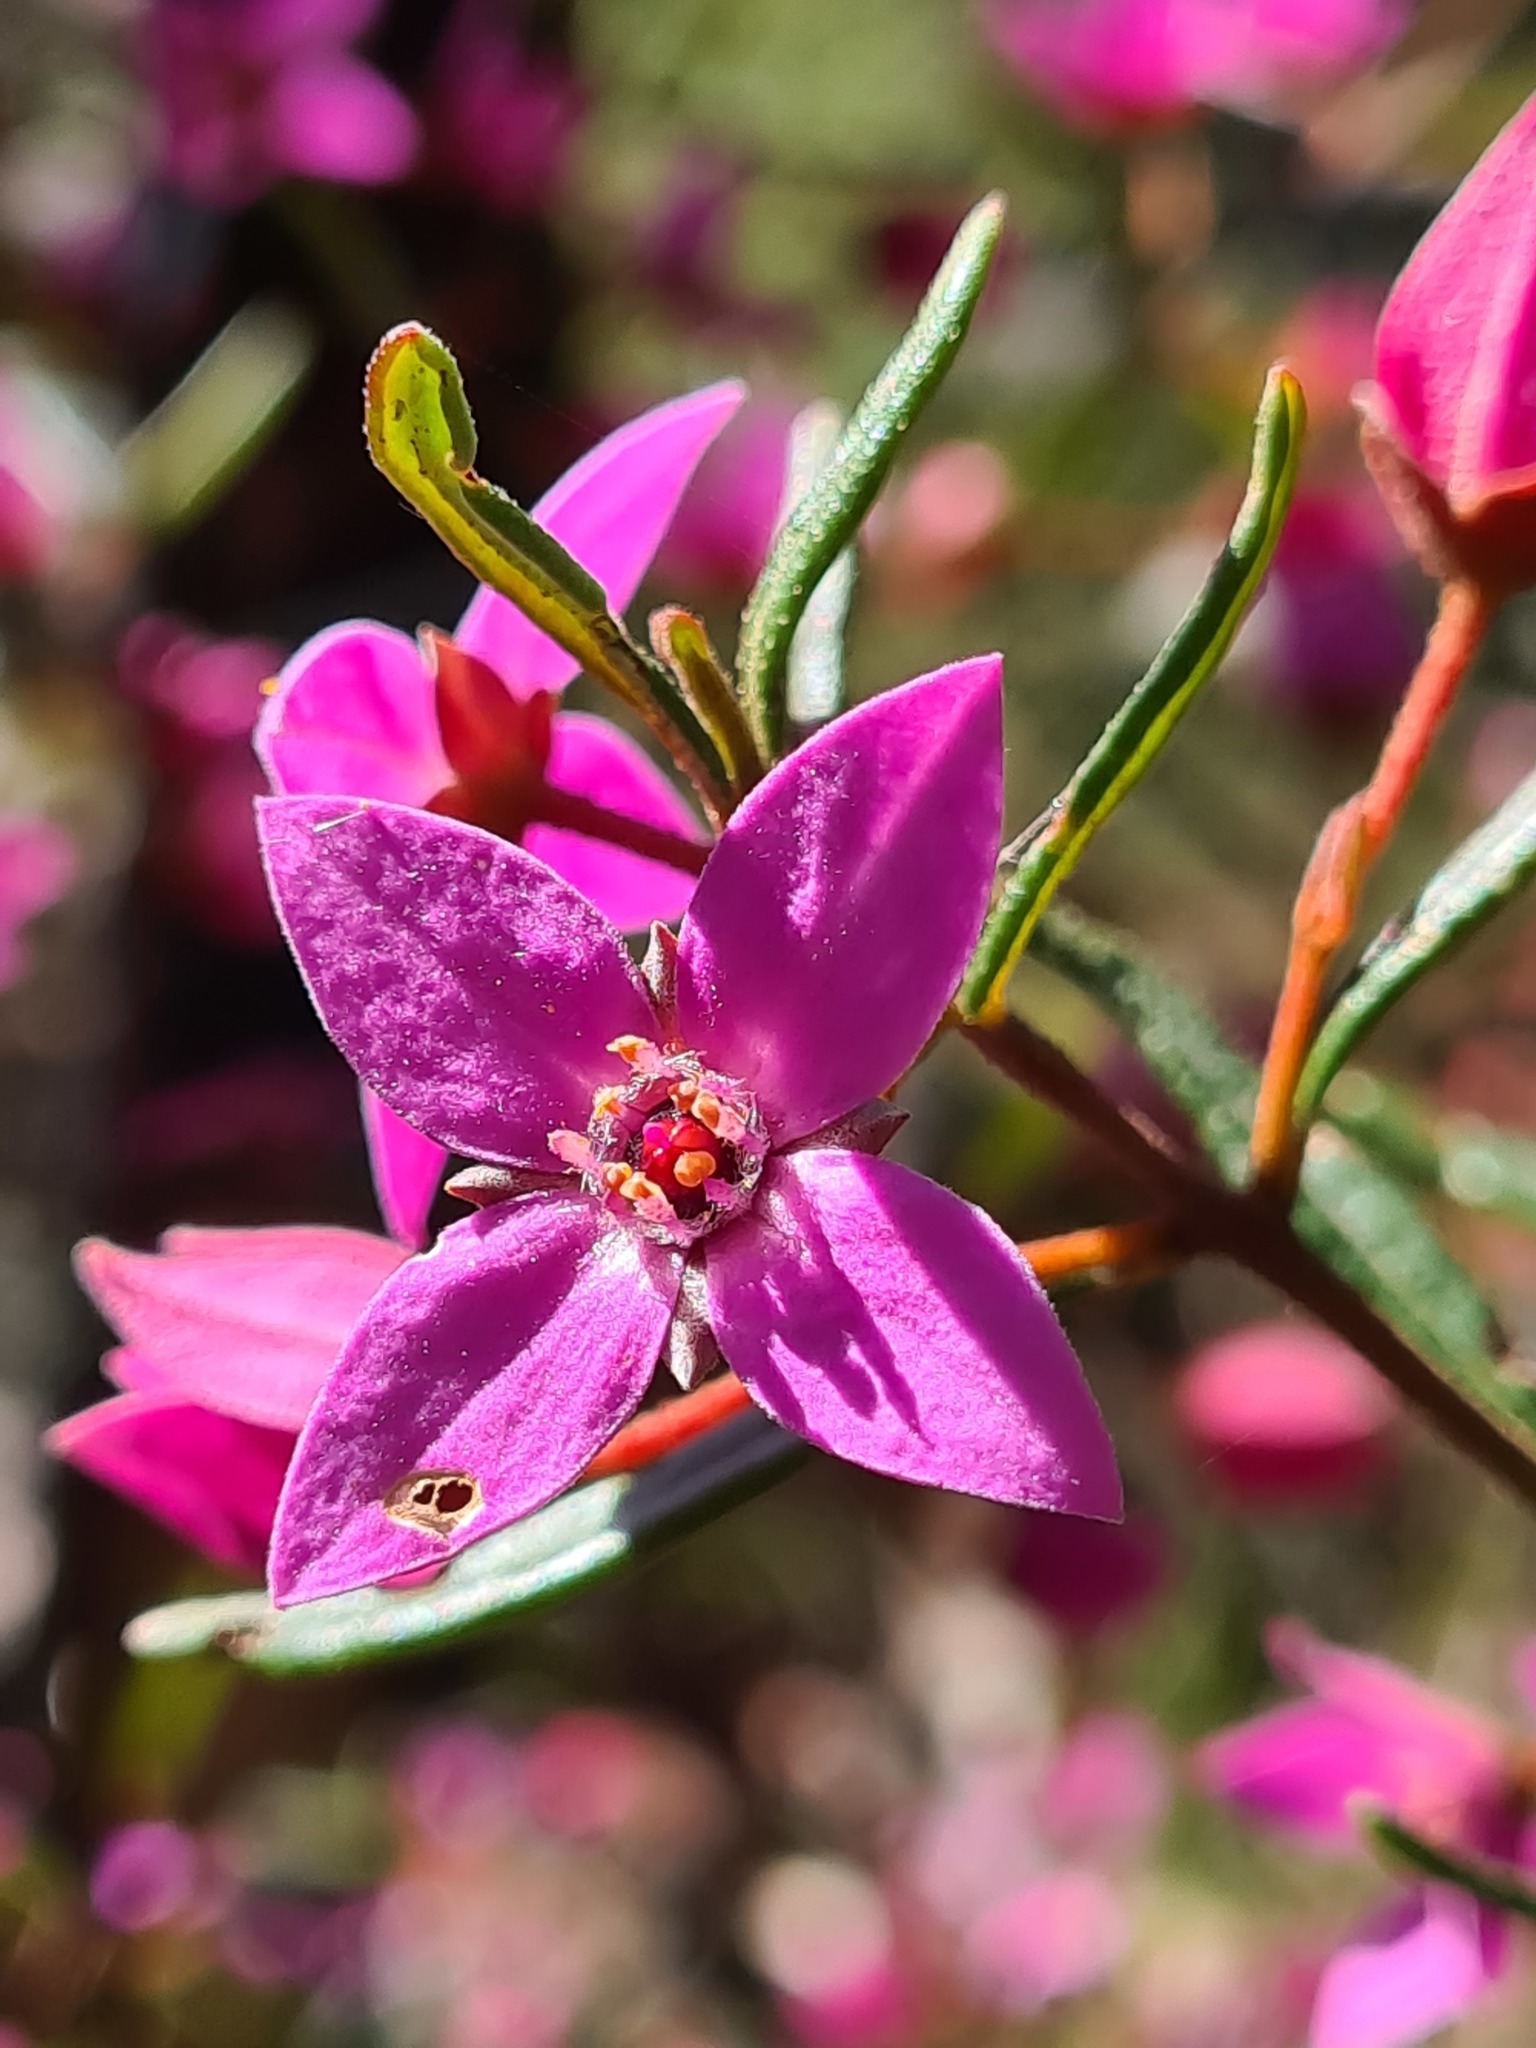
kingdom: Plantae
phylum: Tracheophyta
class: Magnoliopsida
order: Sapindales
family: Rutaceae
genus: Boronia
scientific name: Boronia ledifolia
